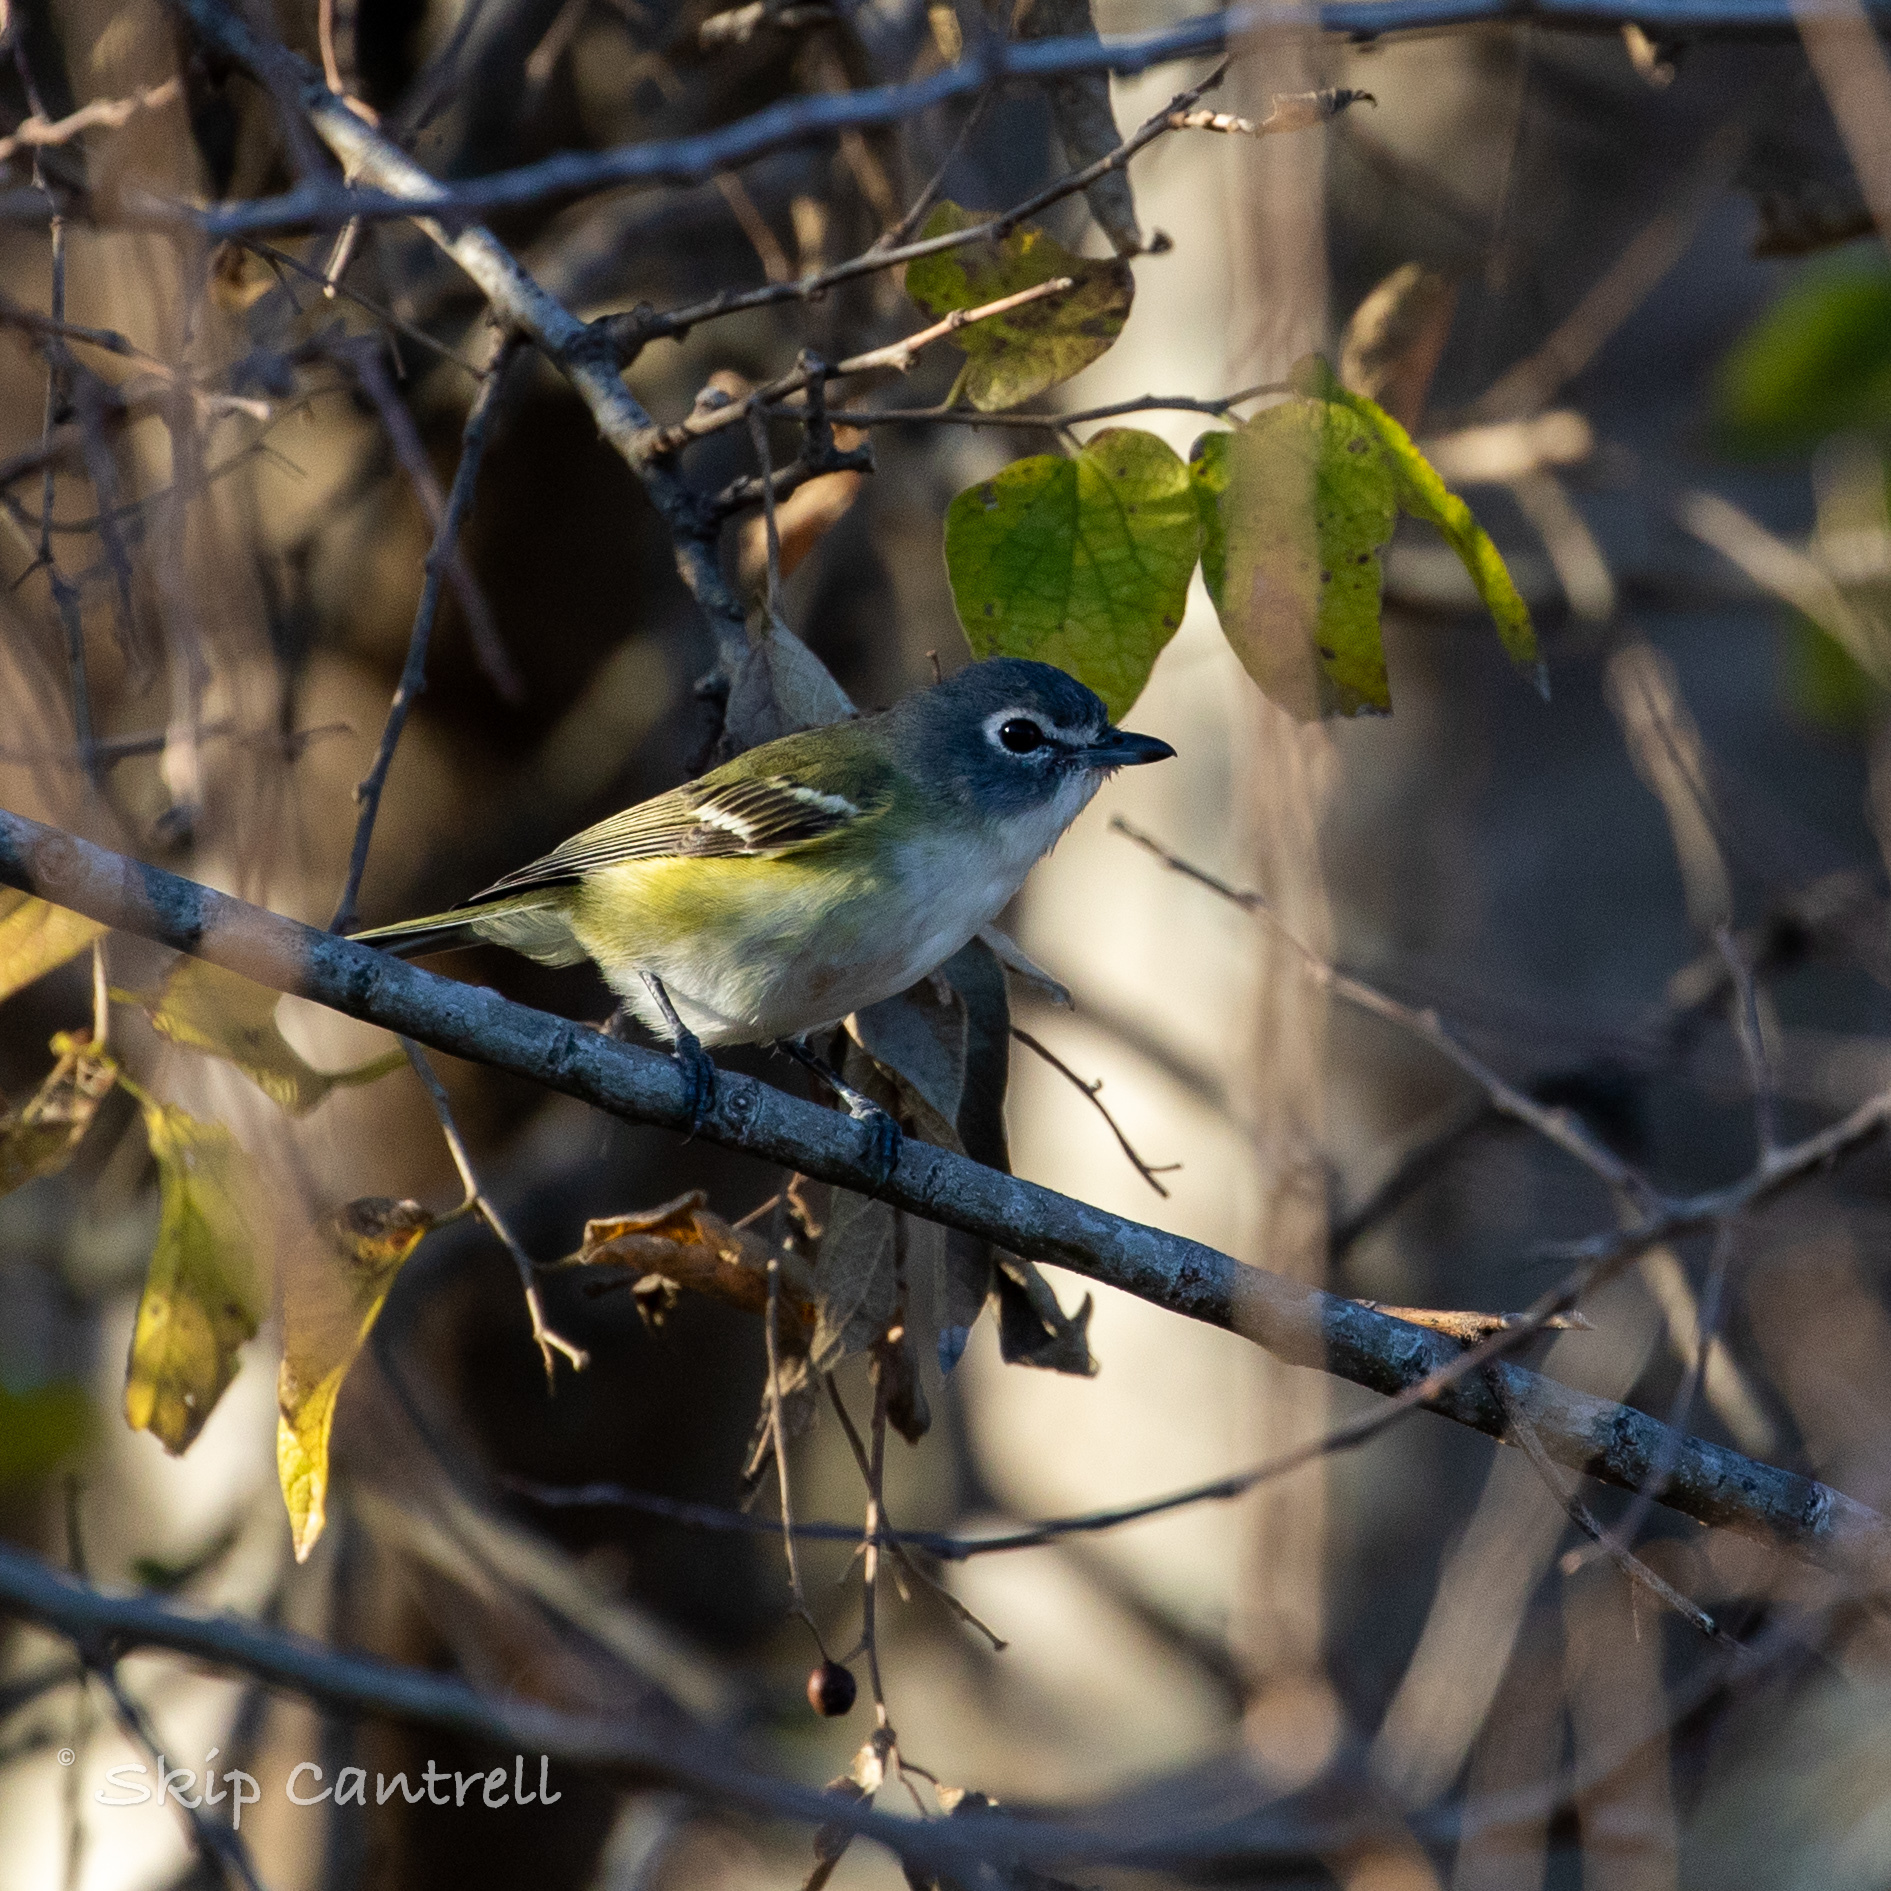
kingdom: Animalia
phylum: Chordata
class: Aves
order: Passeriformes
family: Vireonidae
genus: Vireo
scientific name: Vireo solitarius
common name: Blue-headed vireo
